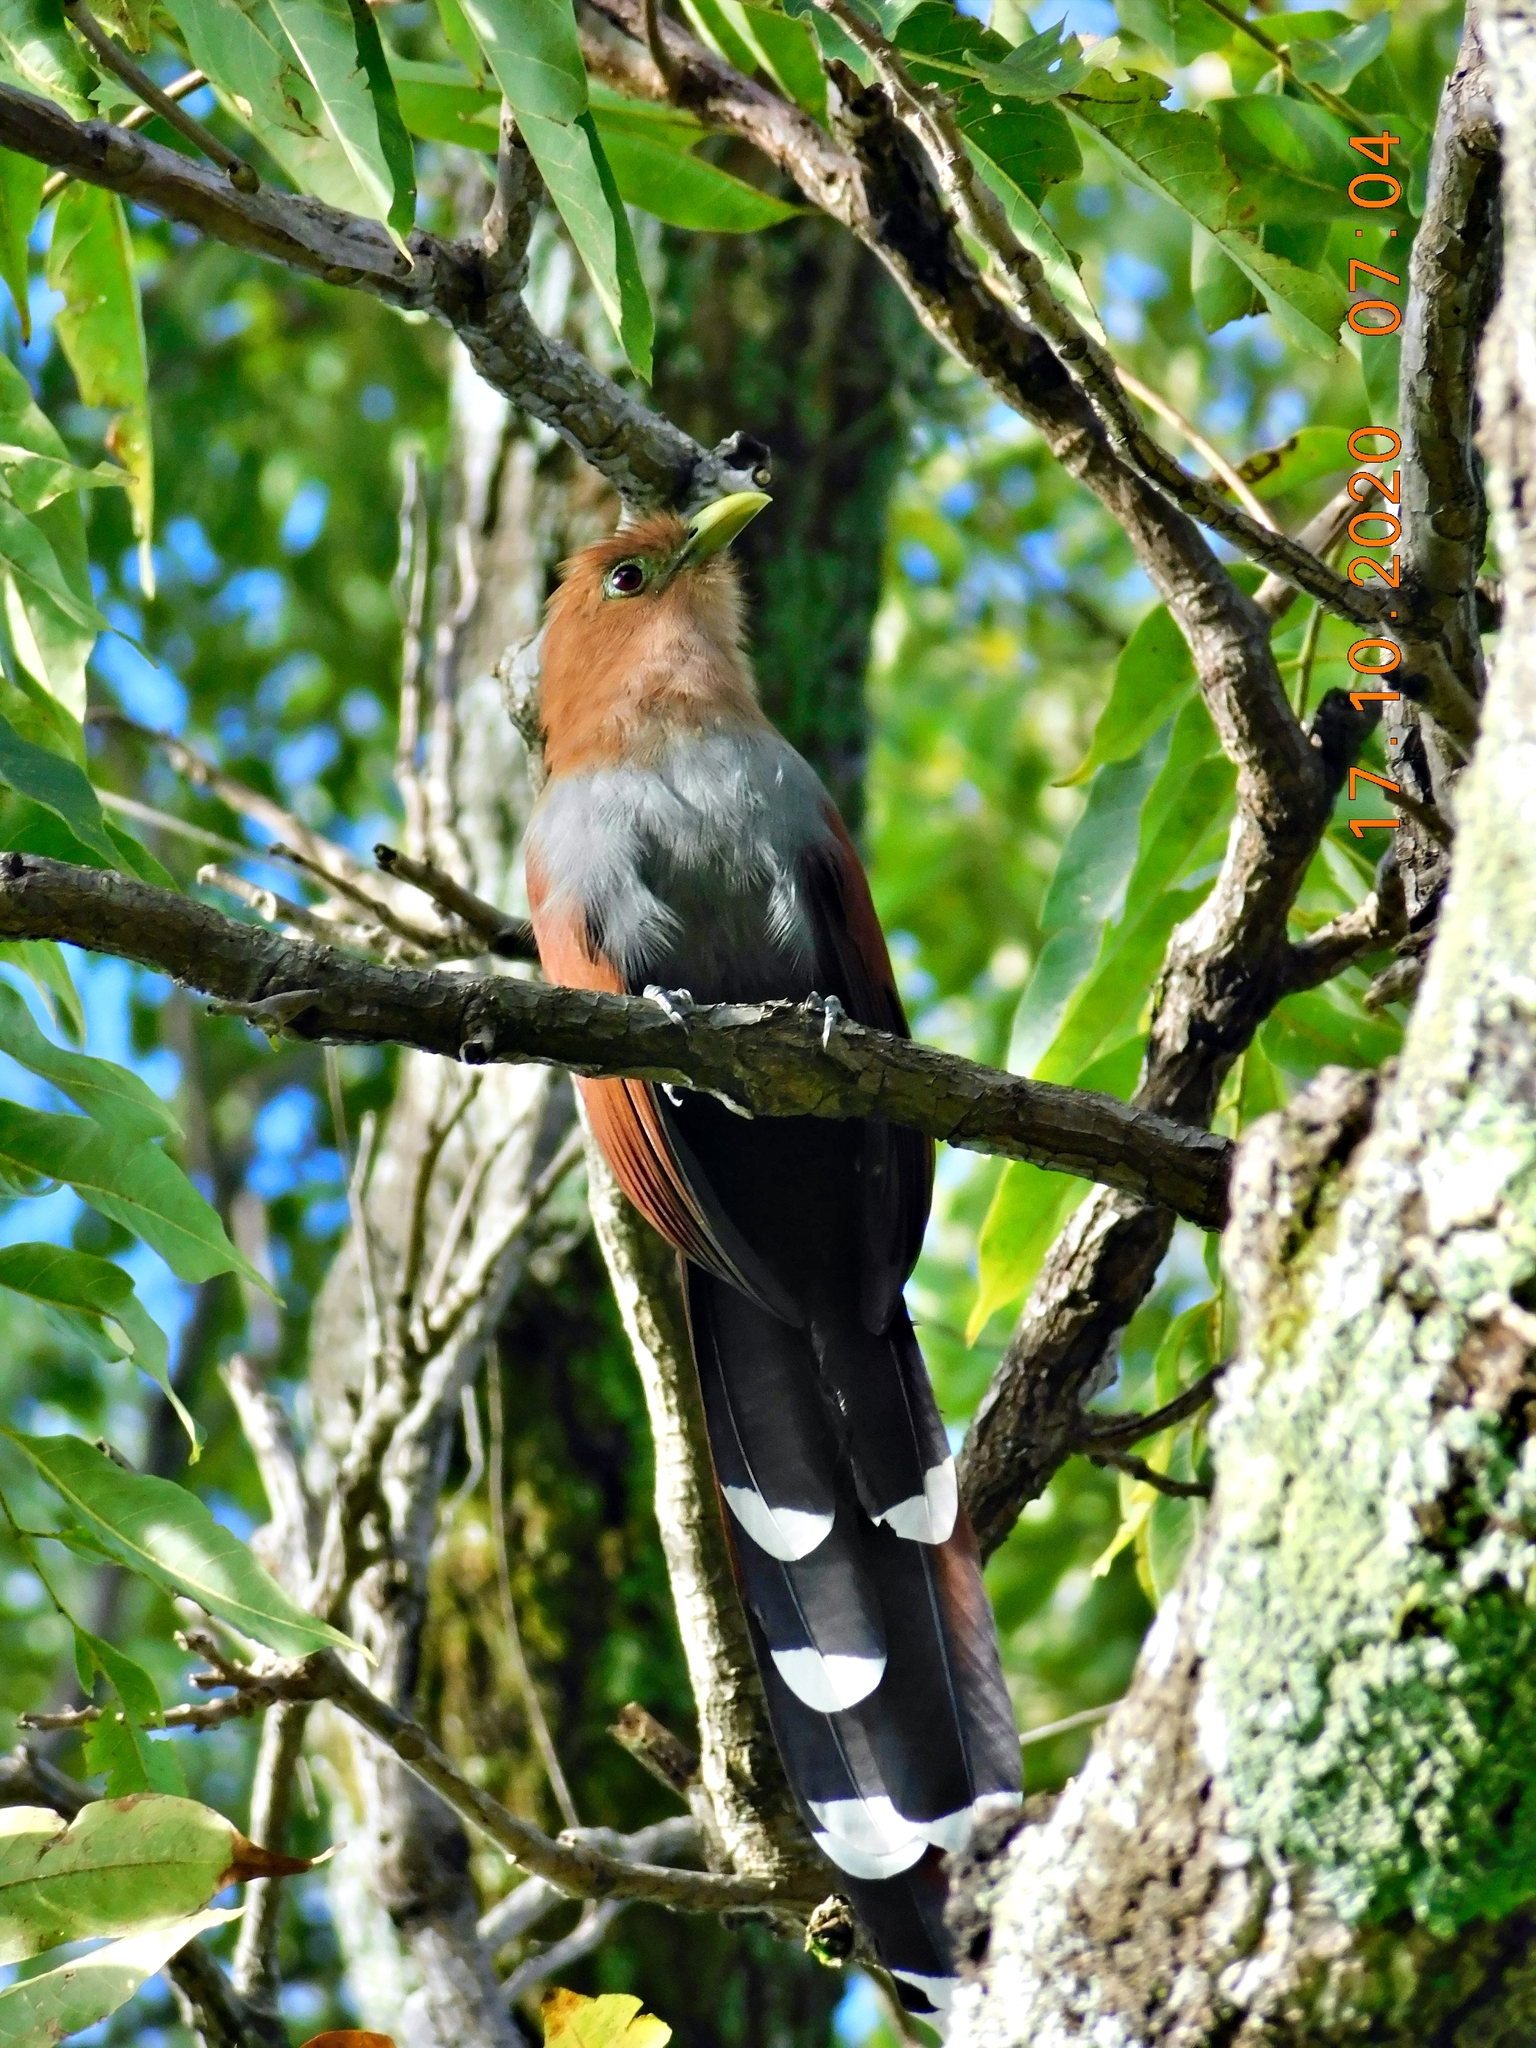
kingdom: Animalia
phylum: Chordata
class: Aves
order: Cuculiformes
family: Cuculidae
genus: Piaya
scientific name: Piaya cayana
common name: Squirrel cuckoo
